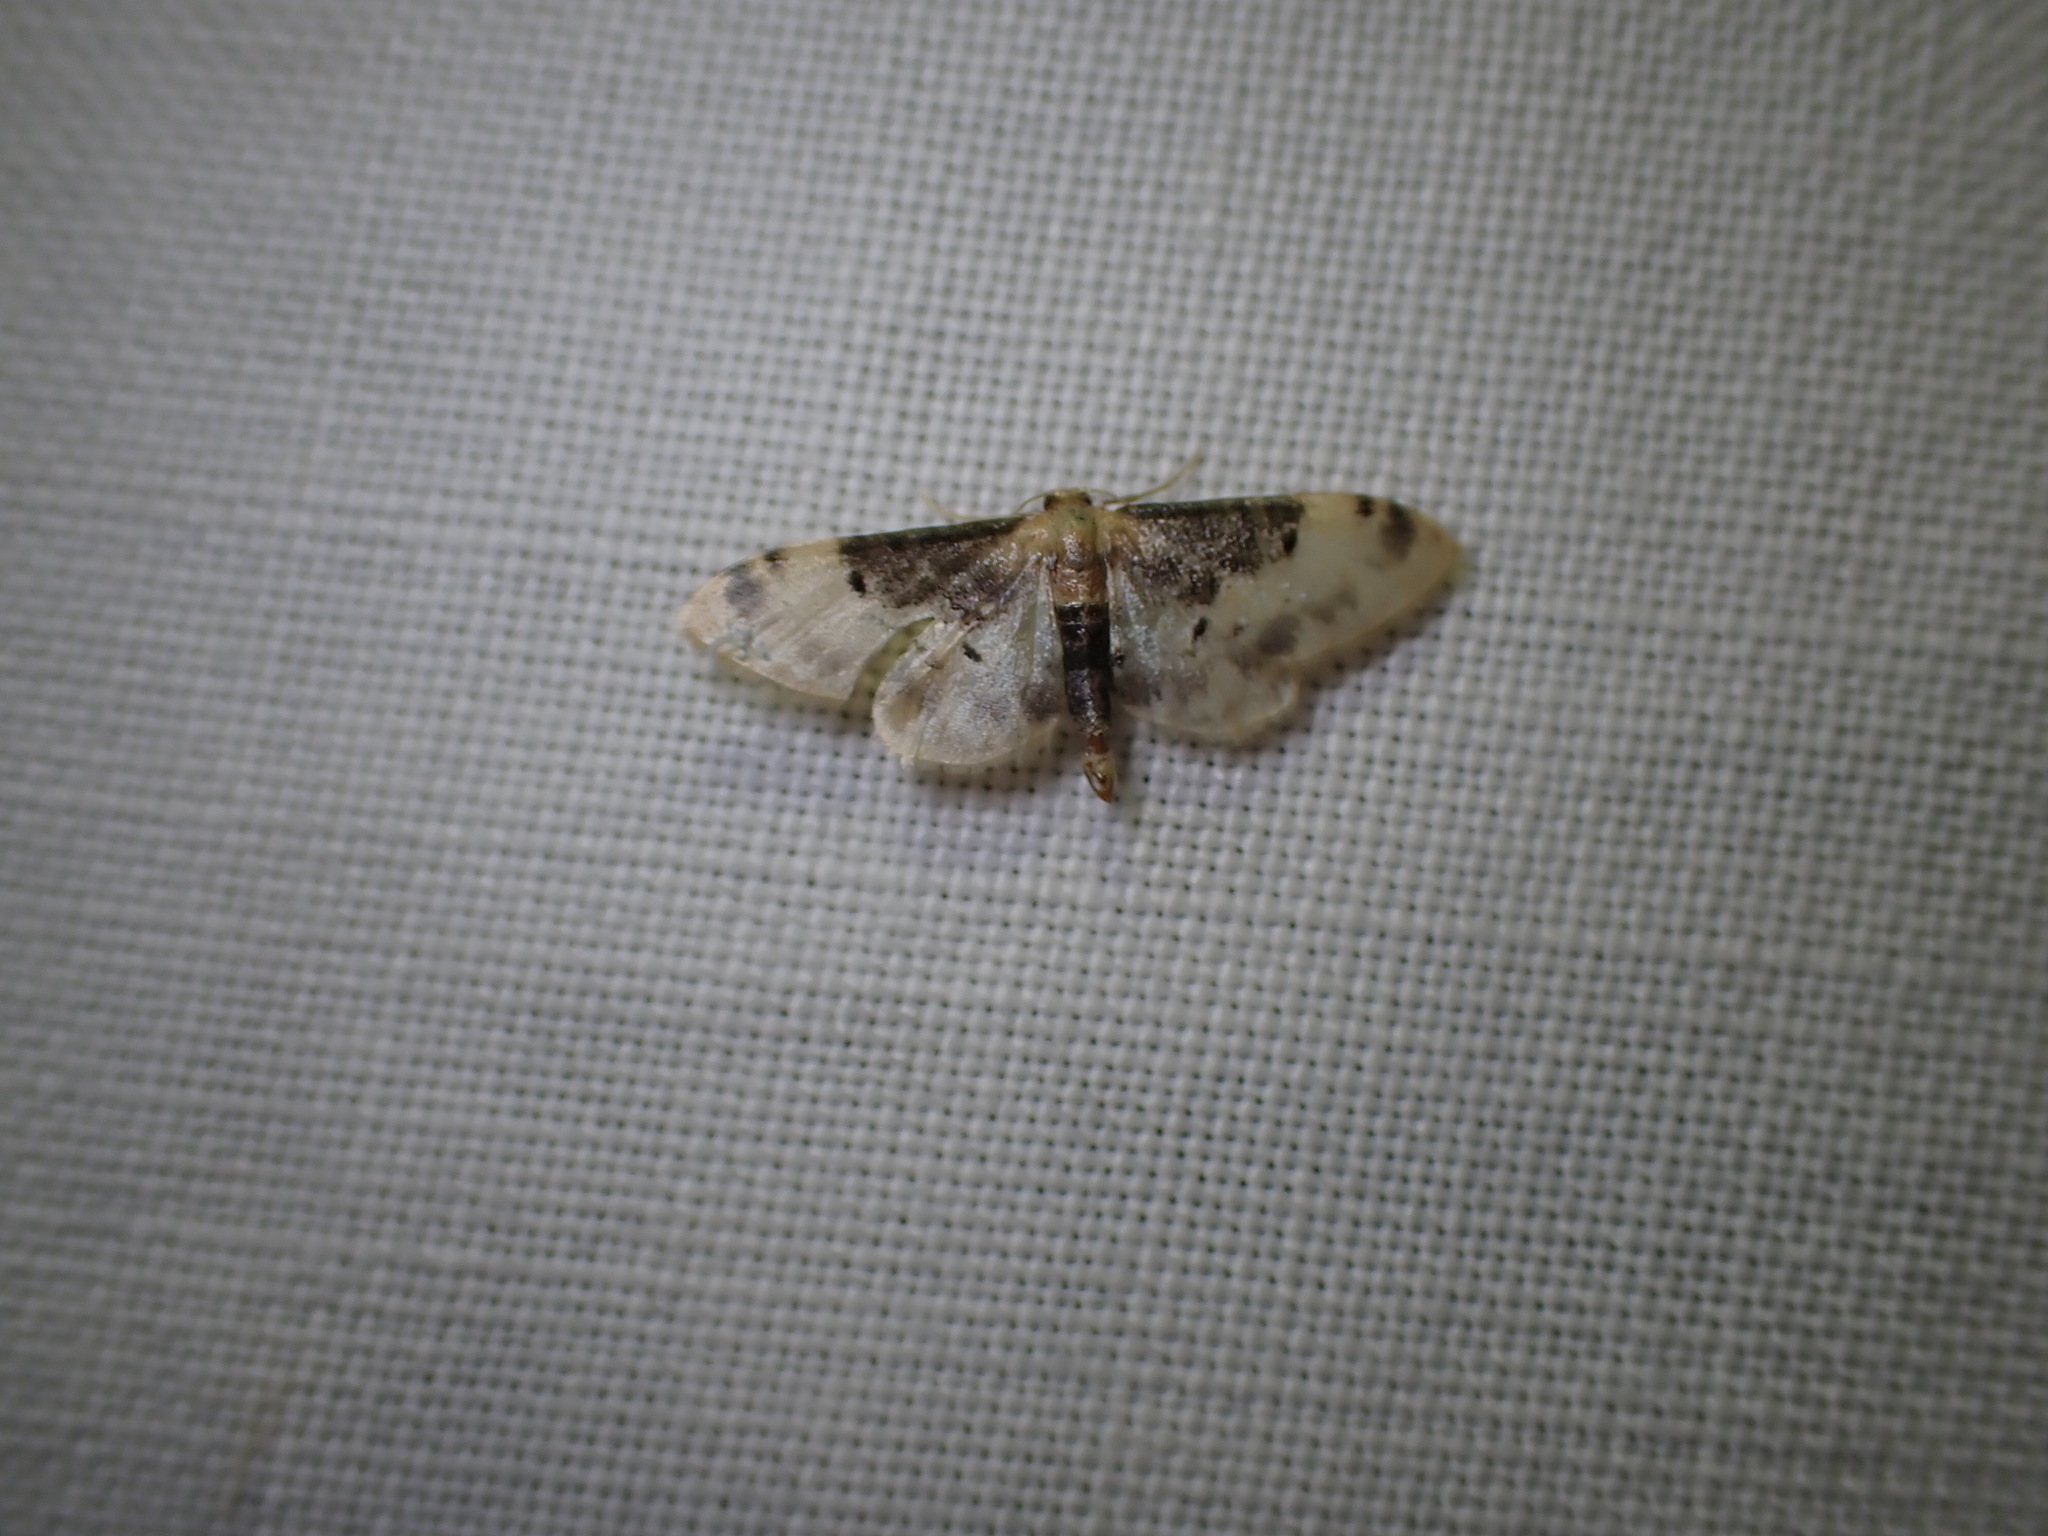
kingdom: Animalia
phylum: Arthropoda
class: Insecta
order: Lepidoptera
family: Geometridae
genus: Idaea
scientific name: Idaea filicata
